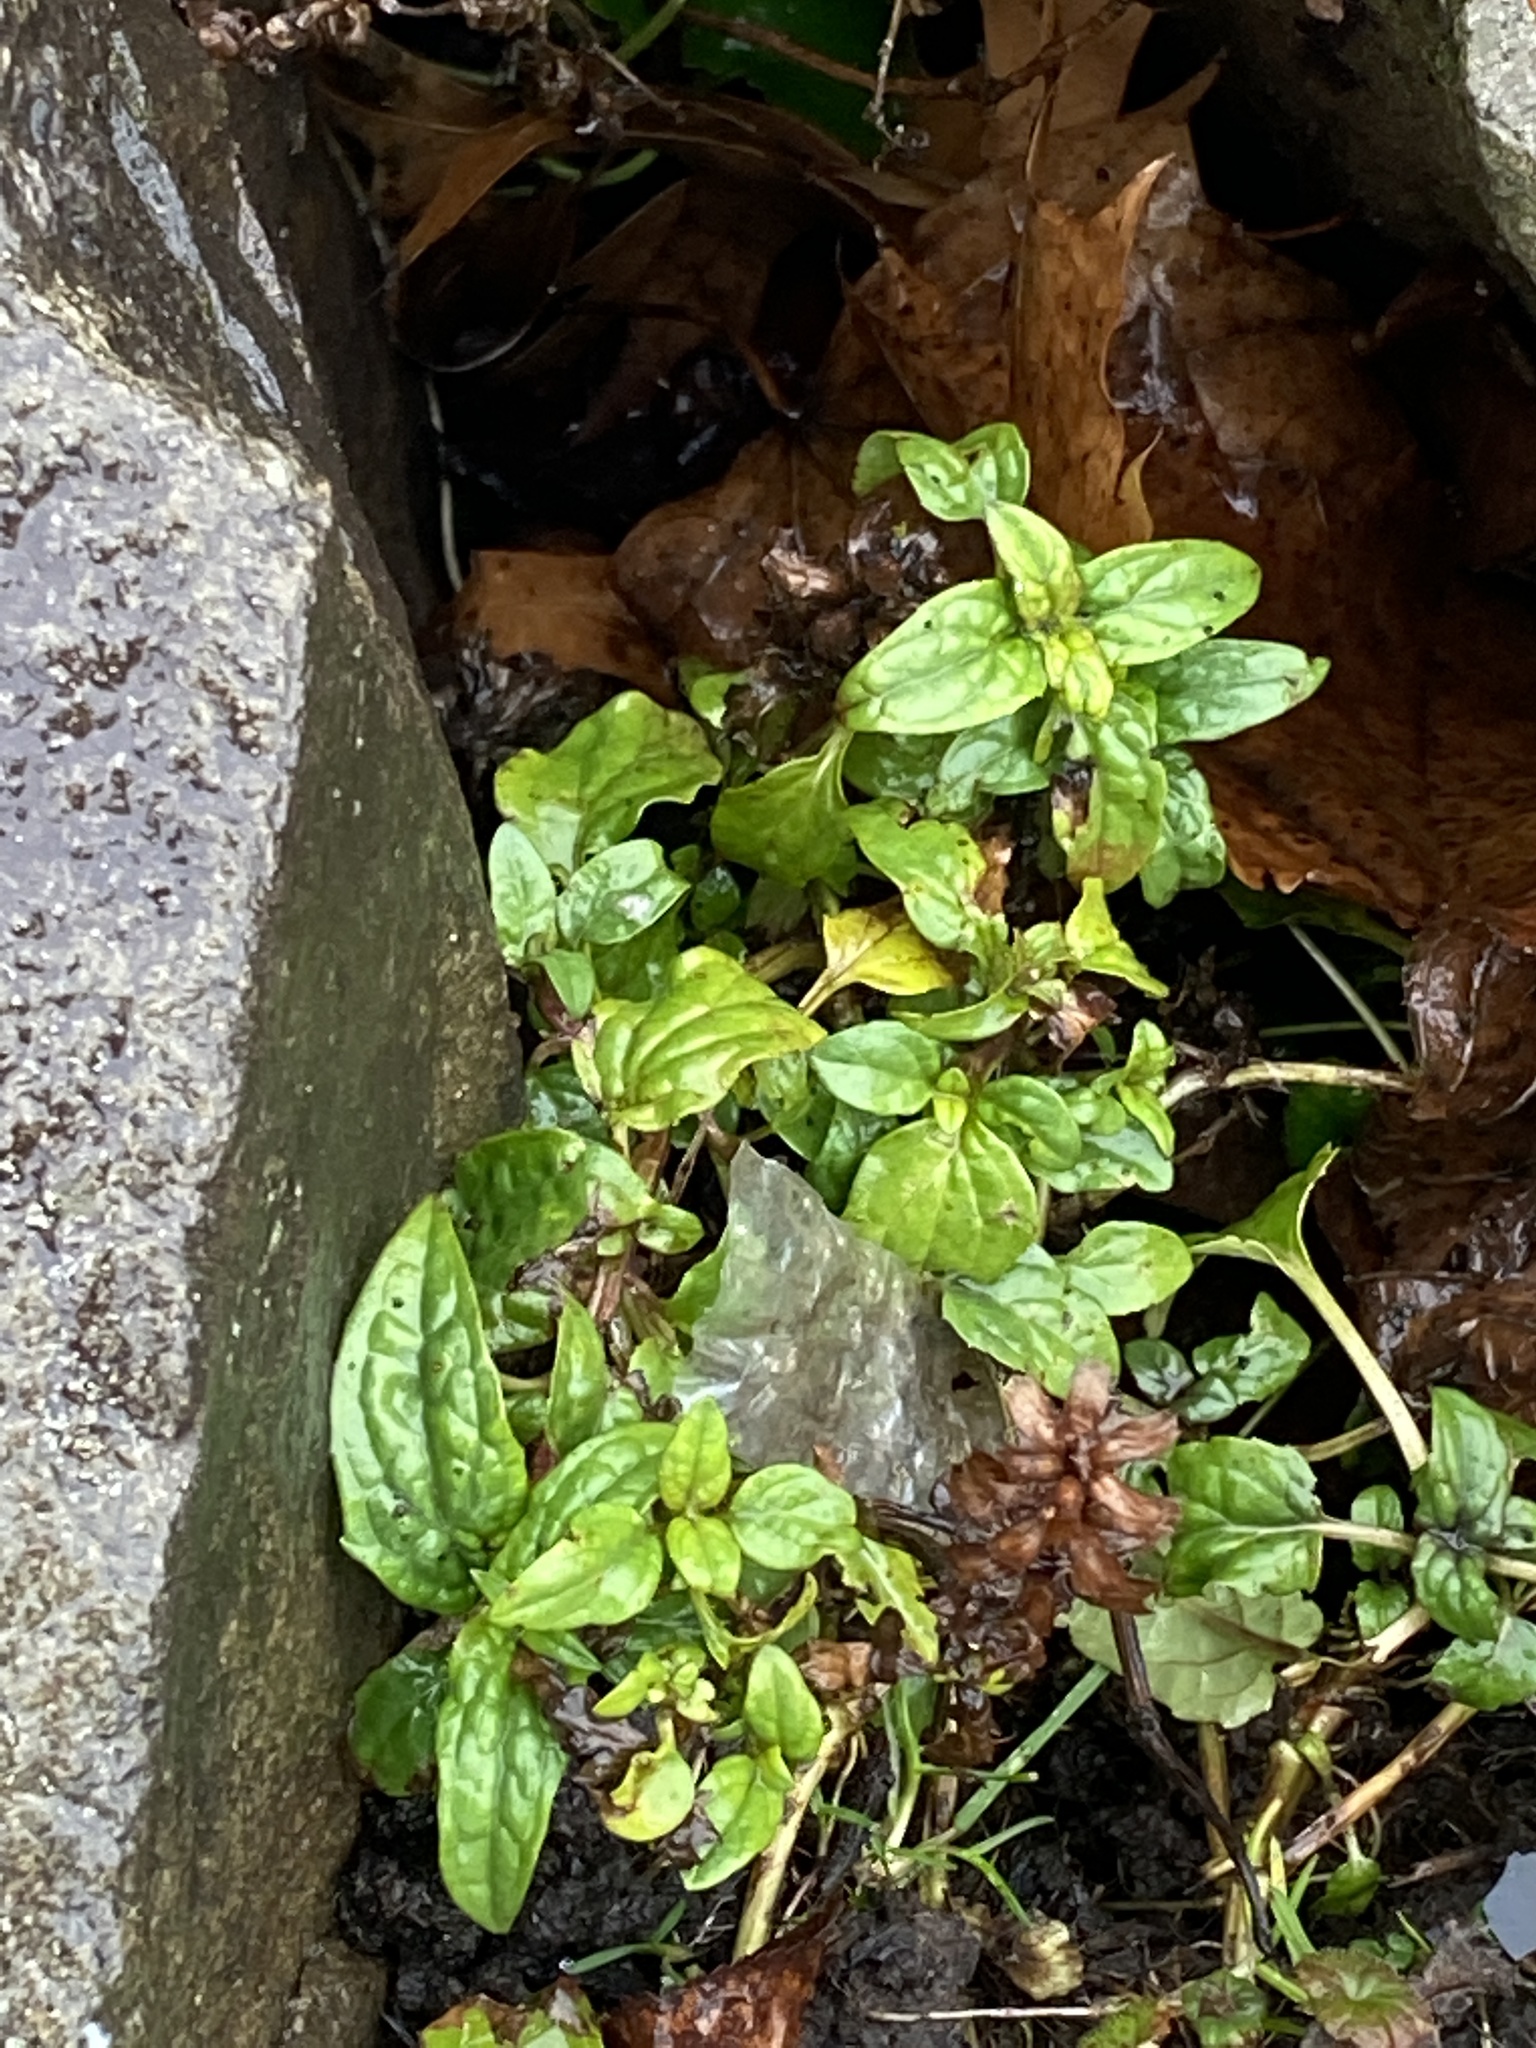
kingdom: Plantae
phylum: Tracheophyta
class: Magnoliopsida
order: Lamiales
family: Lamiaceae
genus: Prunella
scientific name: Prunella vulgaris
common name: Heal-all
